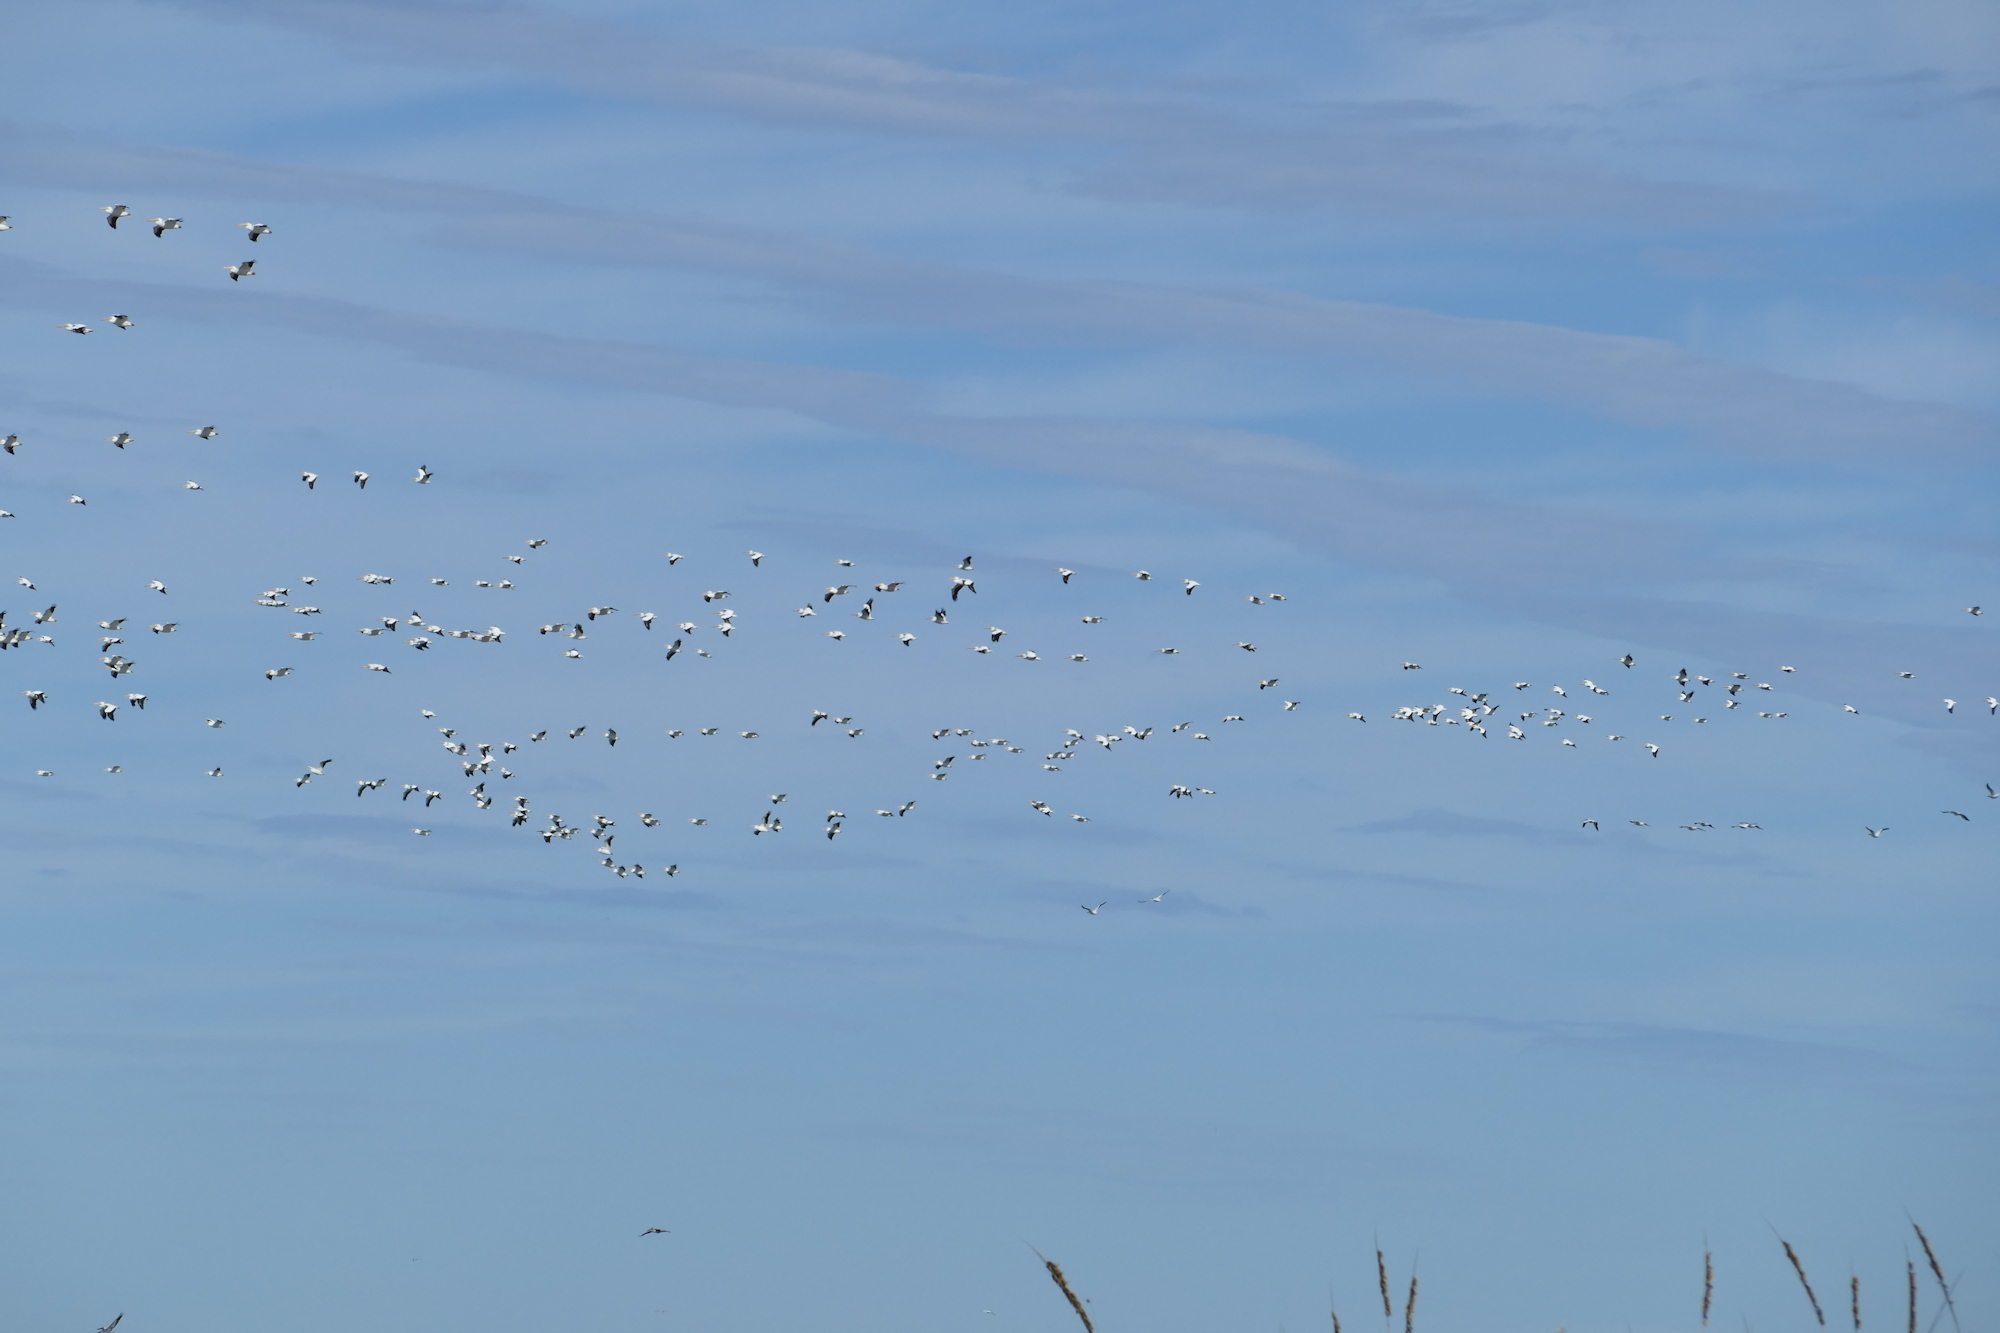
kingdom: Animalia
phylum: Chordata
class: Aves
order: Pelecaniformes
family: Pelecanidae
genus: Pelecanus
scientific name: Pelecanus erythrorhynchos
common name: American white pelican
